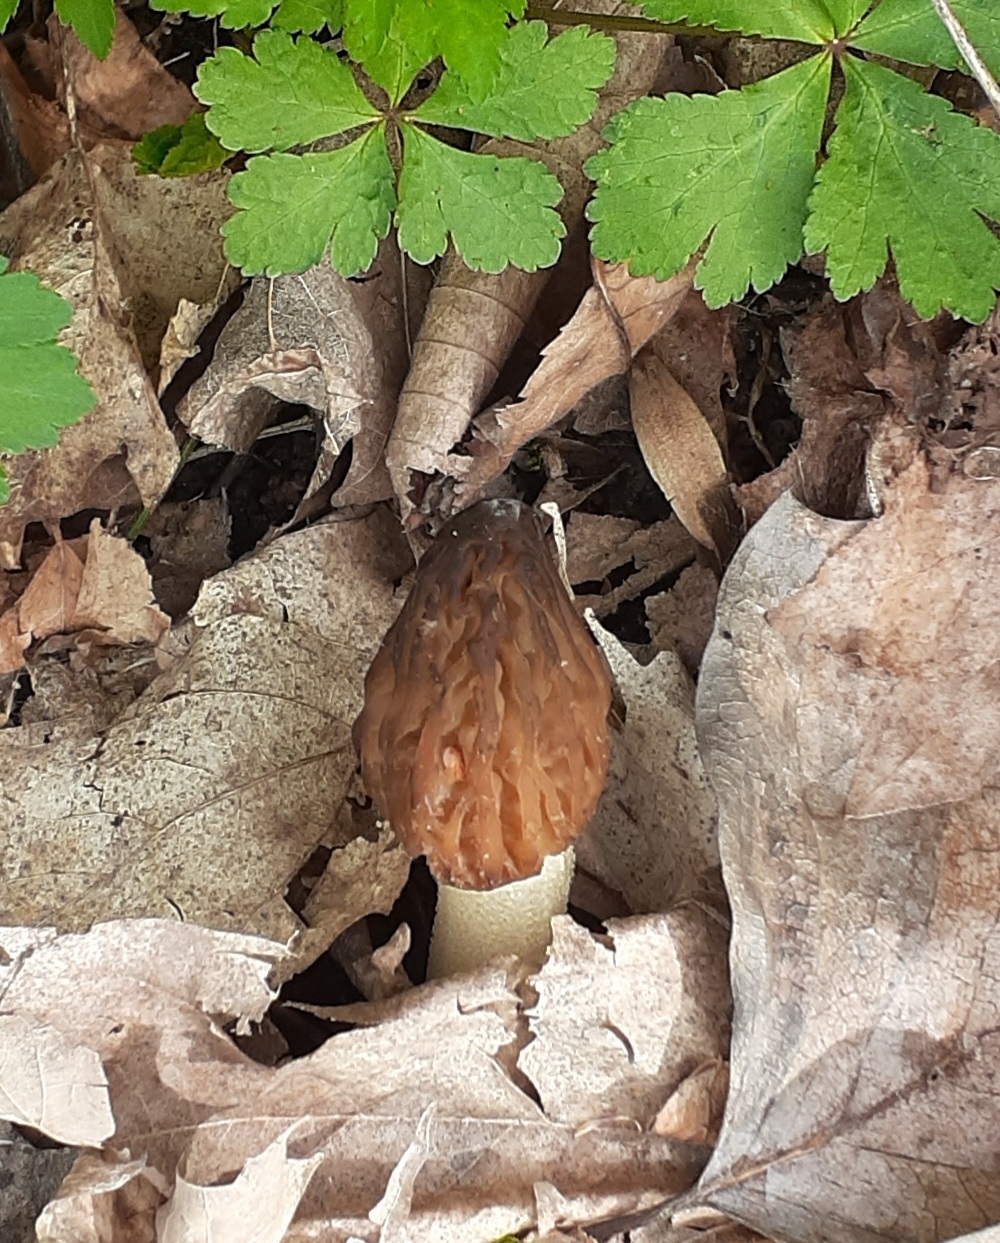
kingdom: Fungi
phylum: Ascomycota
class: Pezizomycetes
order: Pezizales
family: Morchellaceae
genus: Morchella
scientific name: Morchella punctipes
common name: Half-free morel
